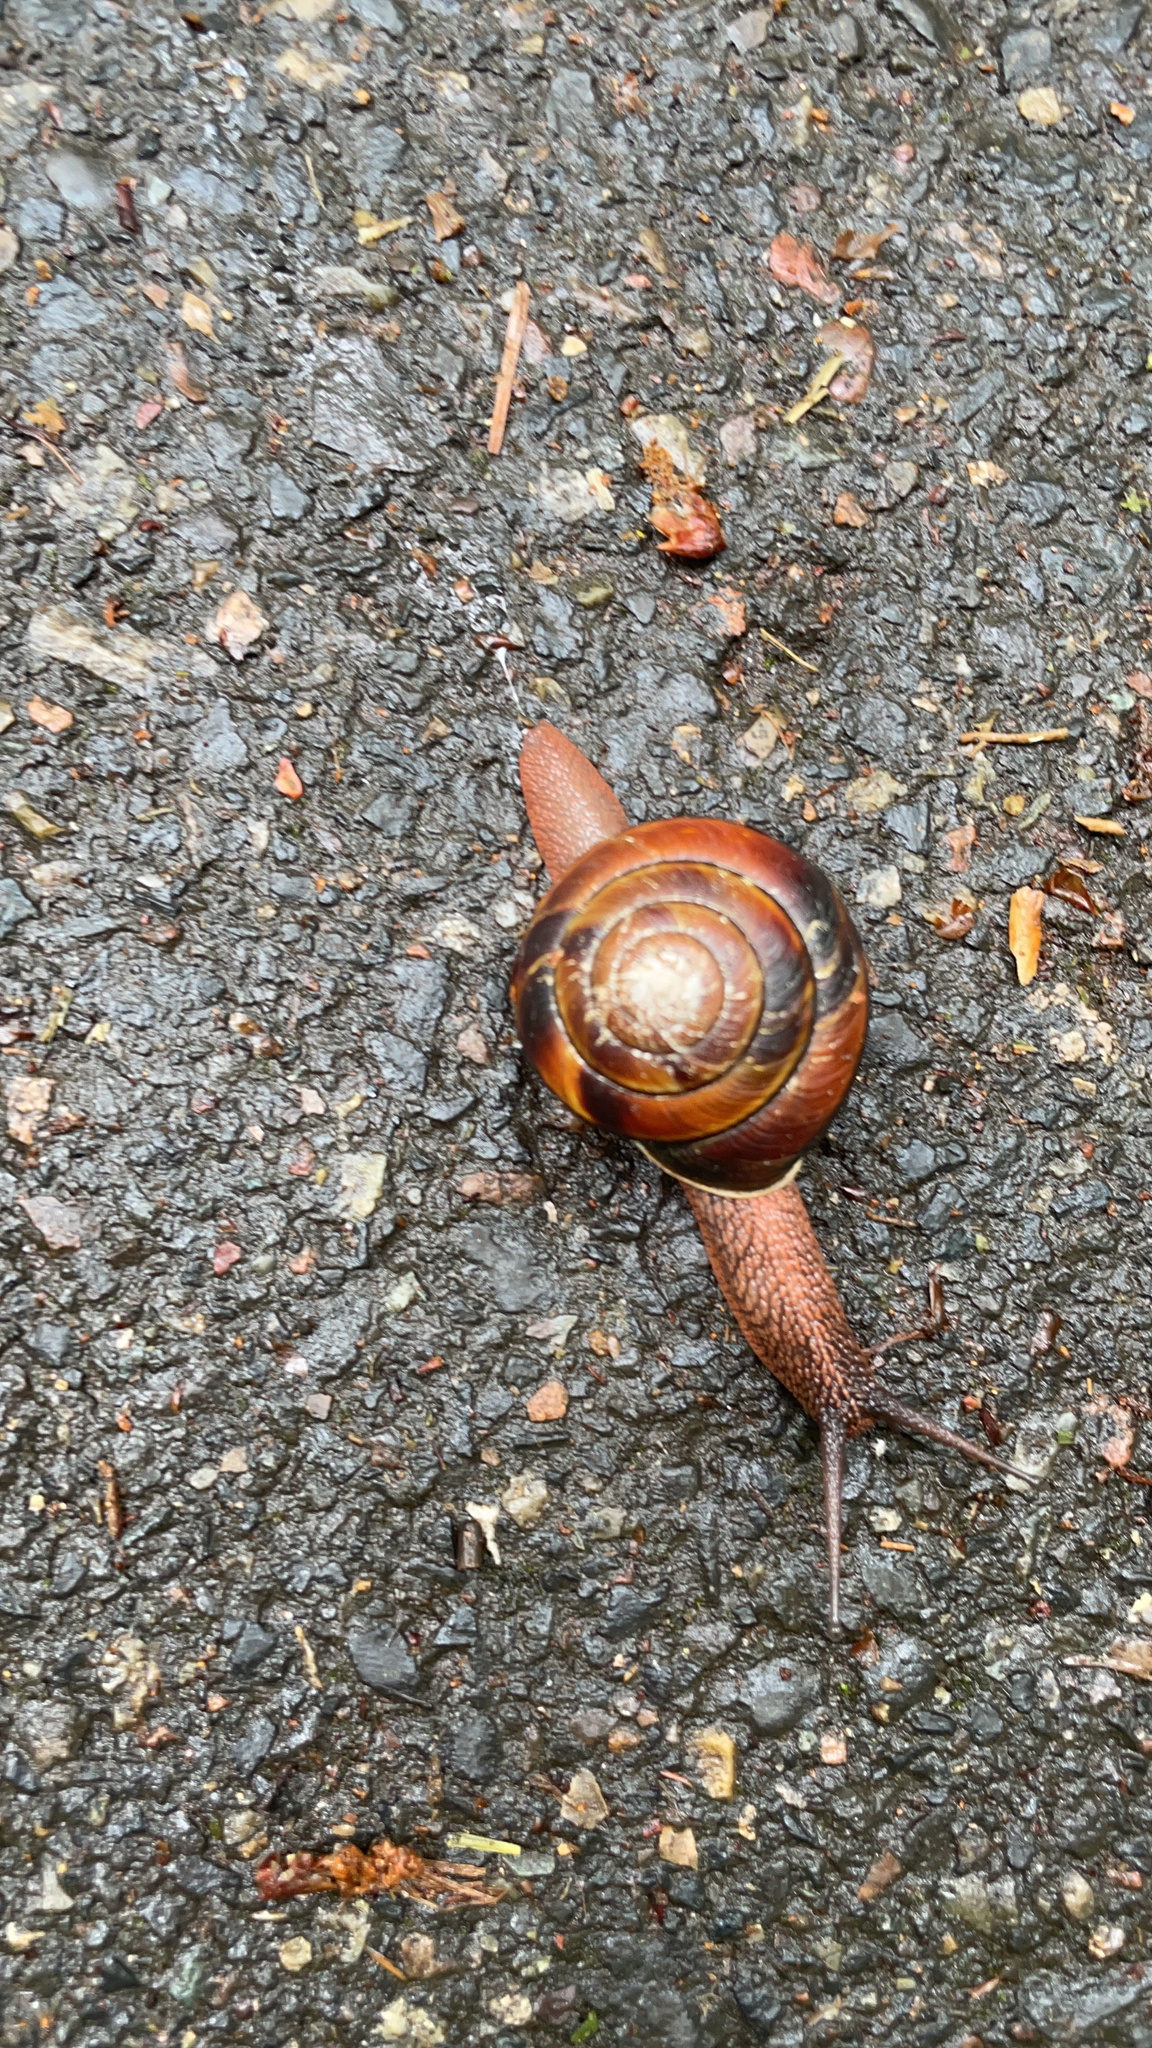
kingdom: Animalia
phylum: Mollusca
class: Gastropoda
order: Stylommatophora
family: Xanthonychidae
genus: Monadenia
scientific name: Monadenia fidelis
